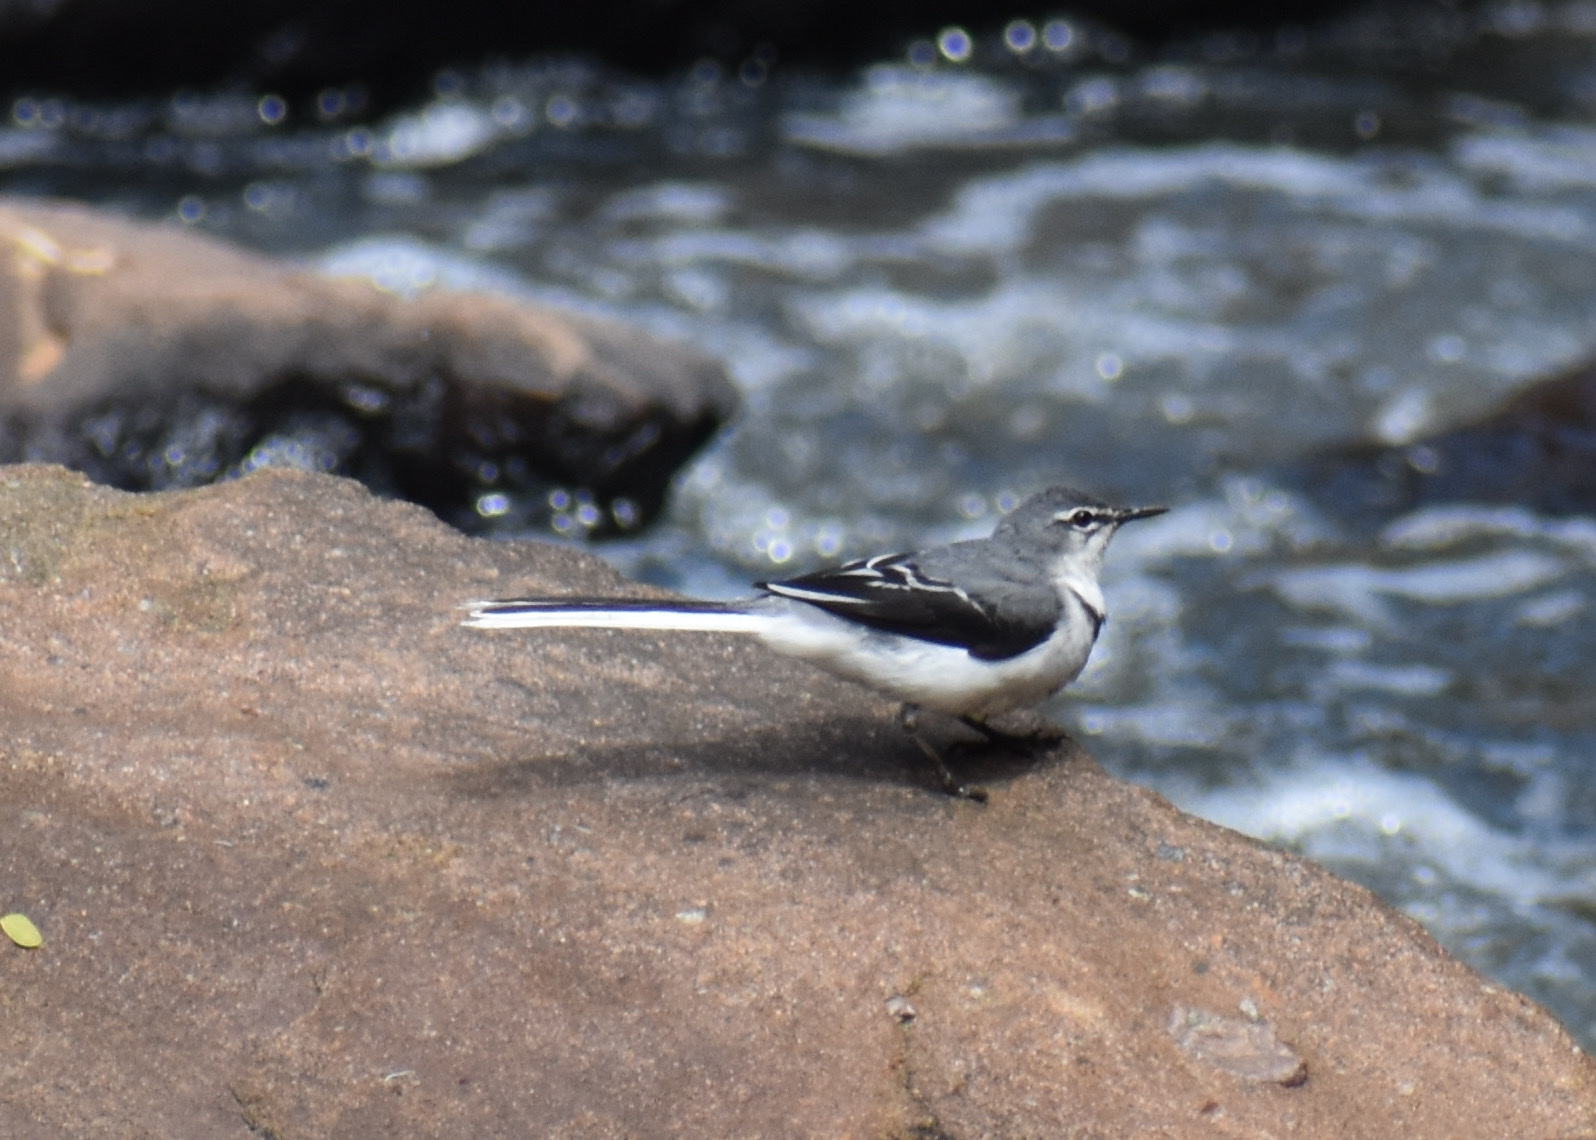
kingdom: Animalia
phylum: Chordata
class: Aves
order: Passeriformes
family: Motacillidae
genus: Motacilla
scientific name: Motacilla clara
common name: Mountain wagtail
